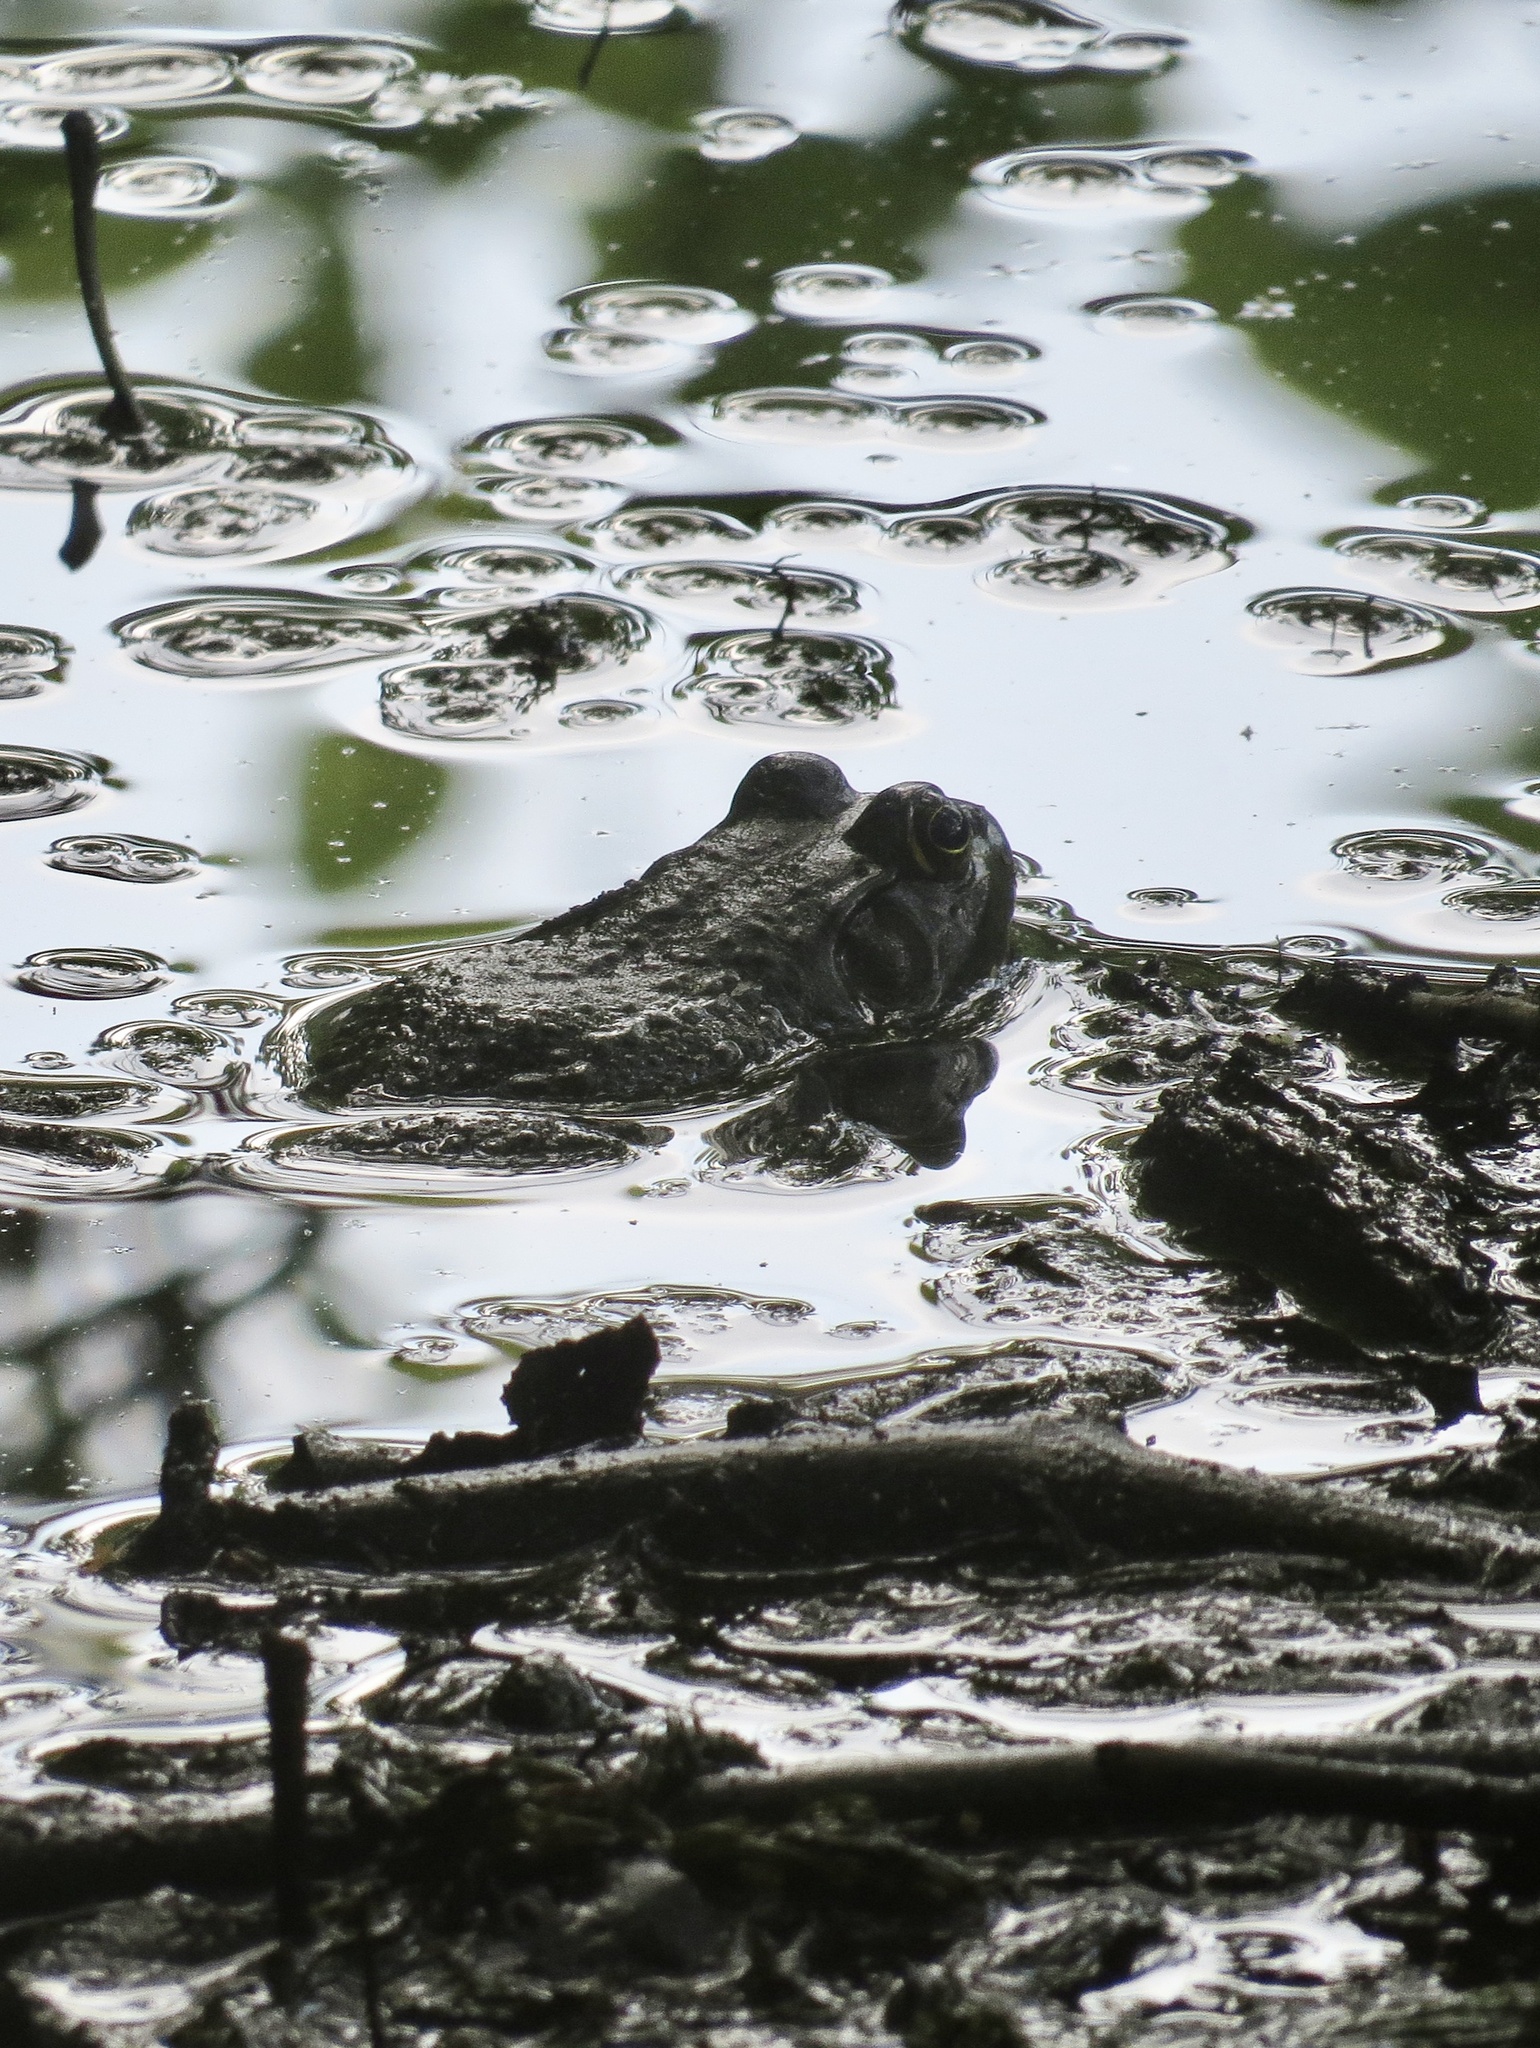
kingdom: Animalia
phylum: Chordata
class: Amphibia
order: Anura
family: Ranidae
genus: Lithobates
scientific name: Lithobates catesbeianus
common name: American bullfrog
